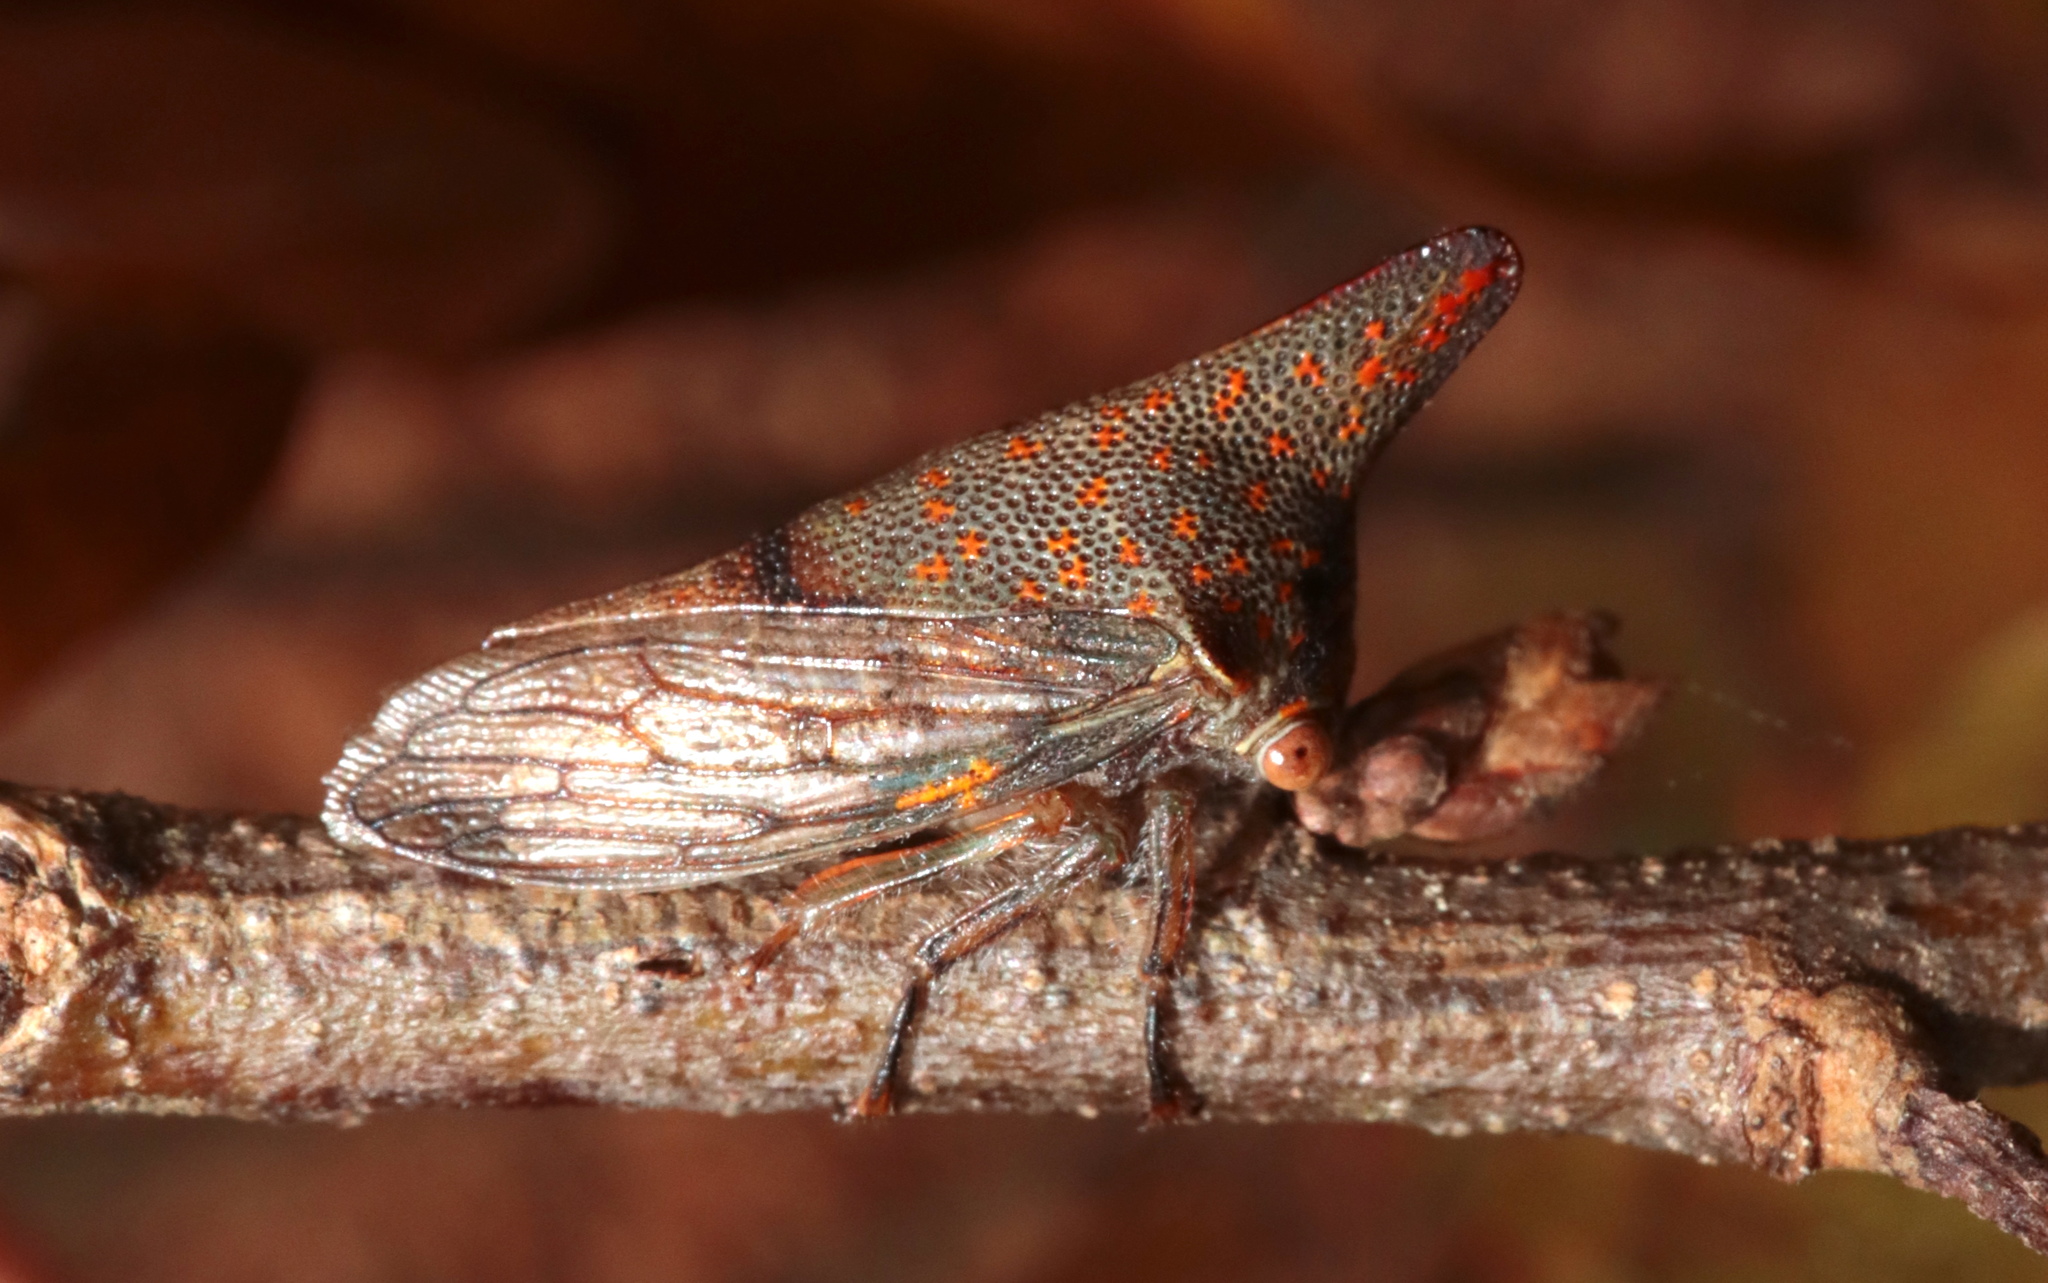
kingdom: Animalia
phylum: Arthropoda
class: Insecta
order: Hemiptera
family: Membracidae
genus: Platycotis
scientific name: Platycotis vittatus
